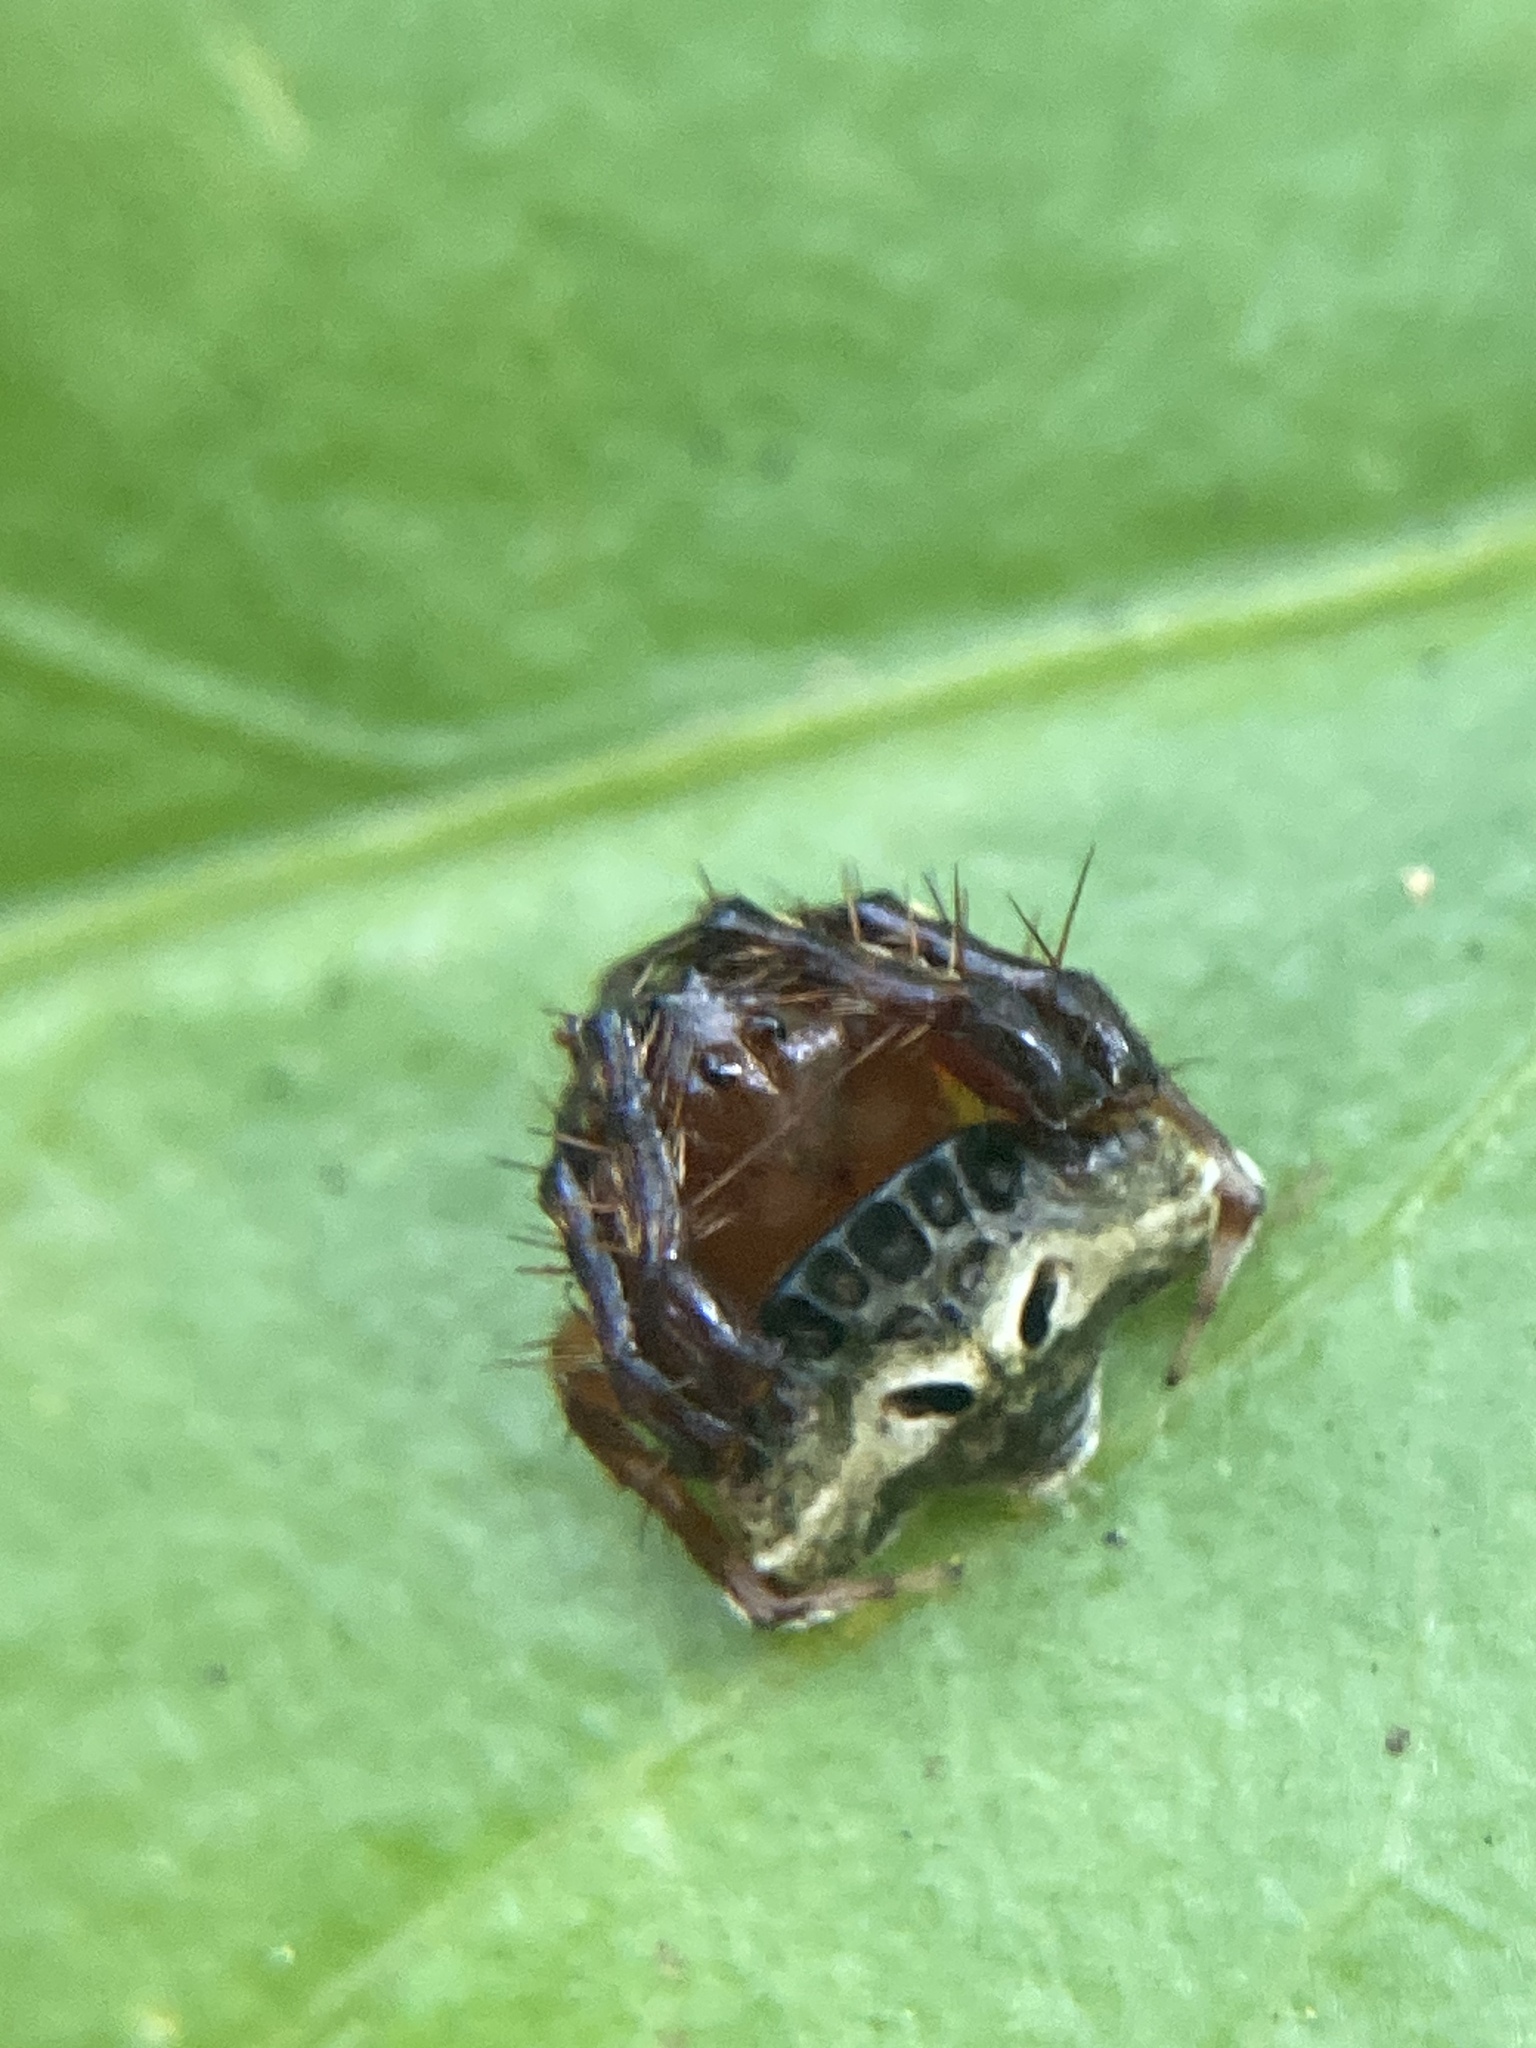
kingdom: Animalia
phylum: Arthropoda
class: Arachnida
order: Araneae
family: Arkyidae
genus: Arkys
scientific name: Arkys speechleyi
